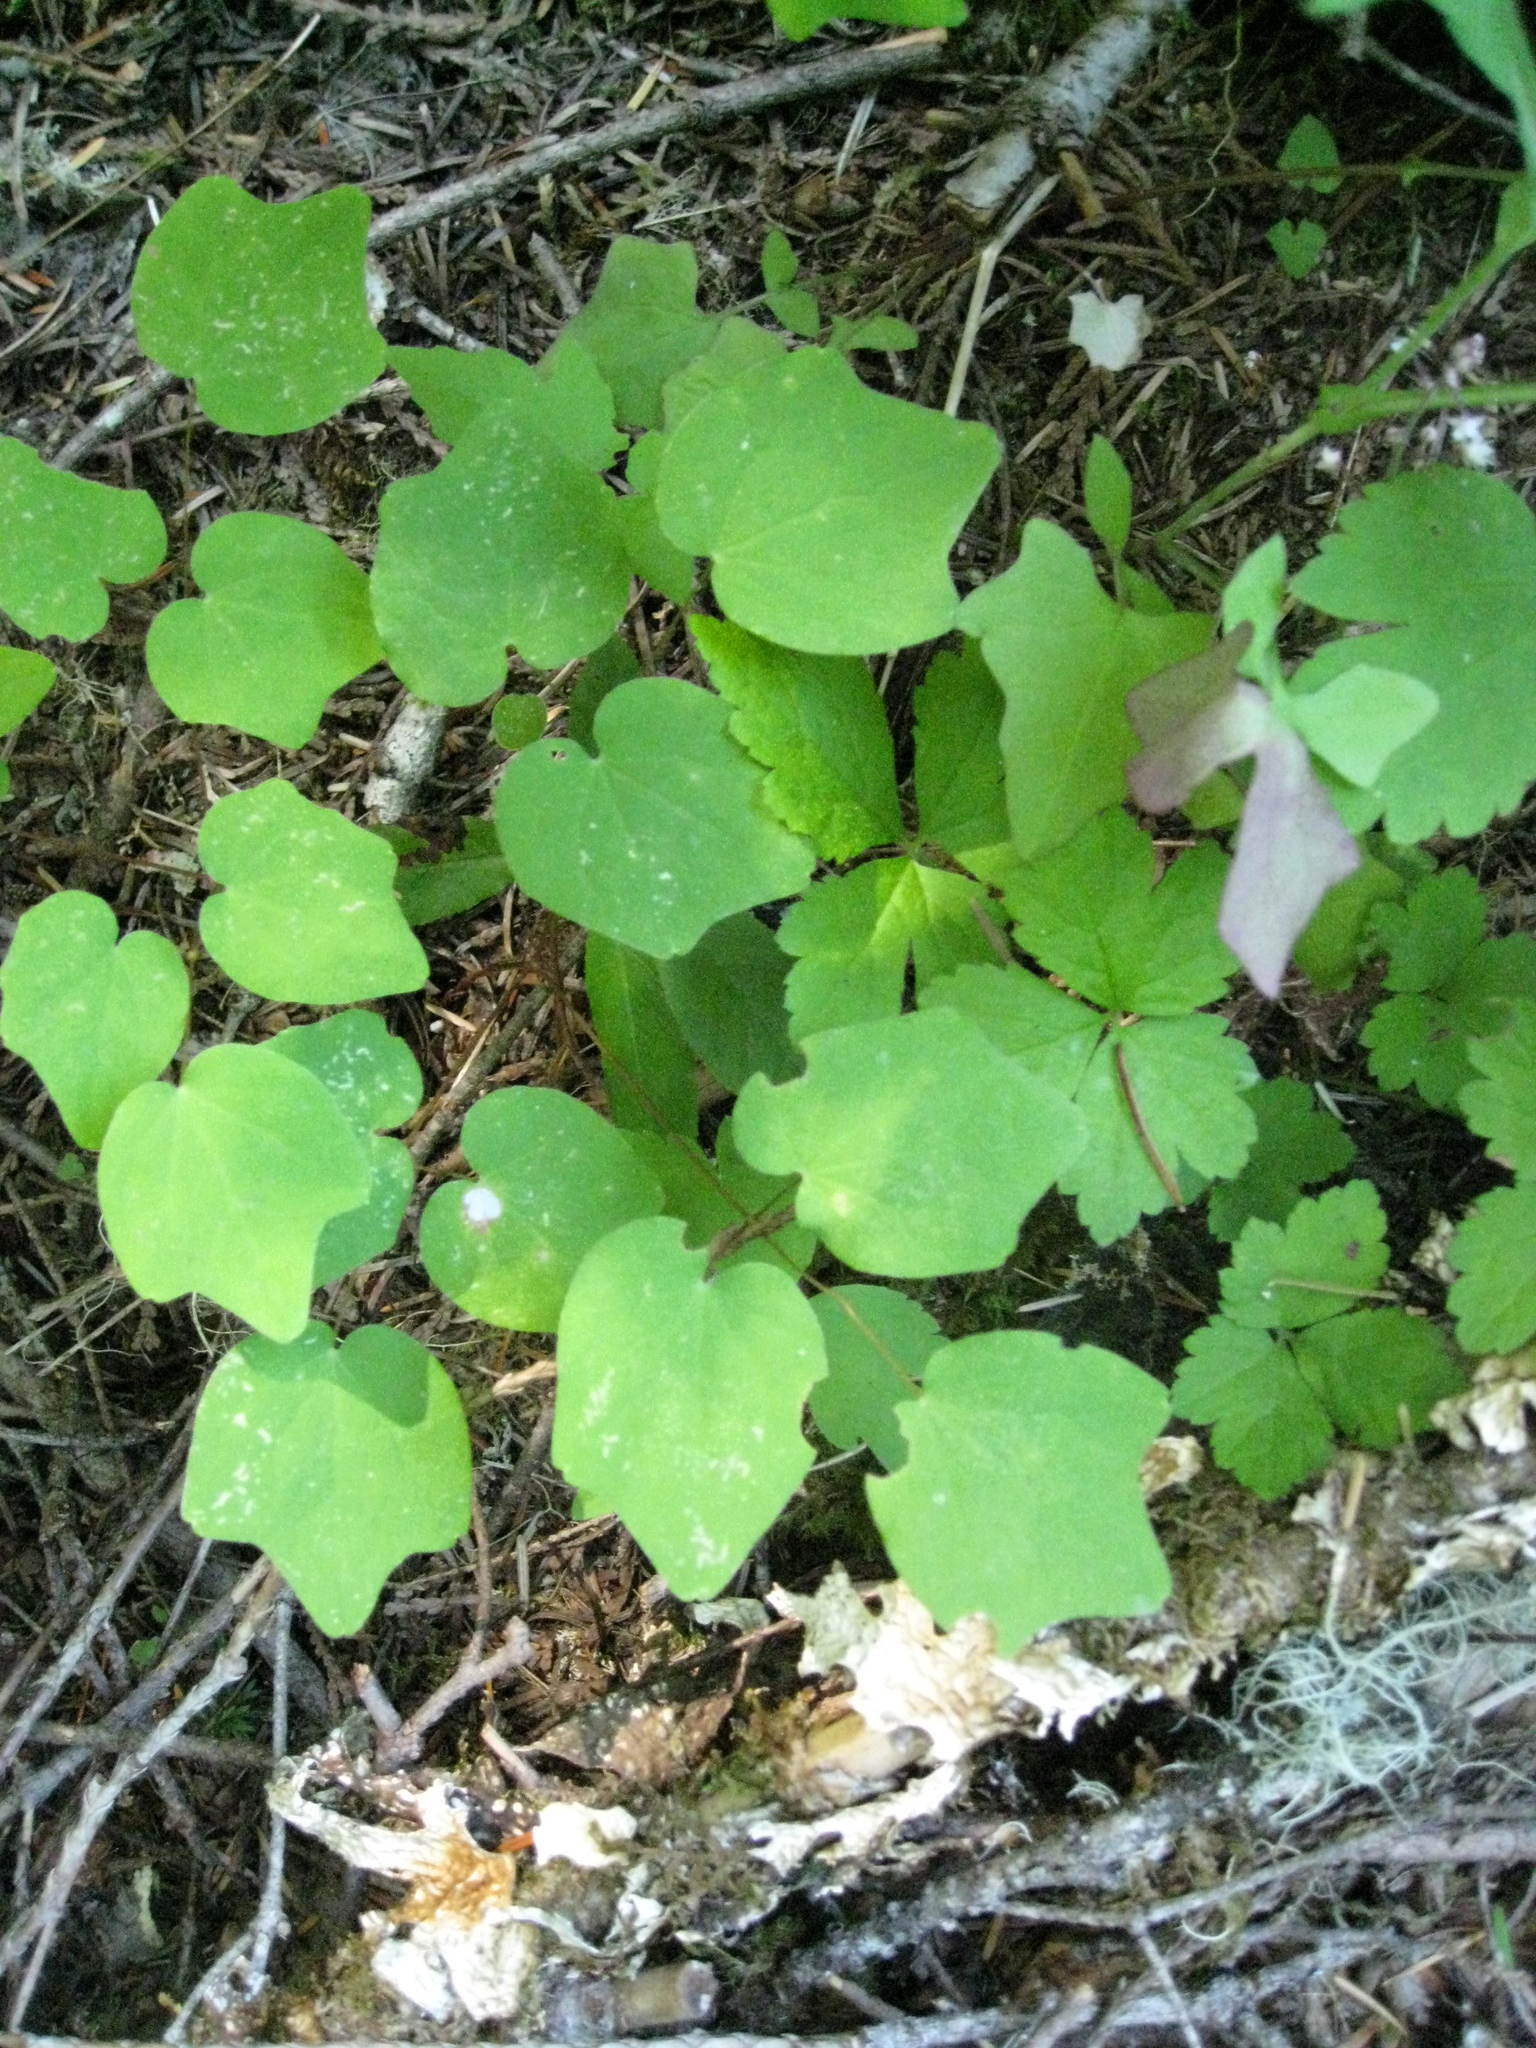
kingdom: Plantae
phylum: Tracheophyta
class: Magnoliopsida
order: Ranunculales
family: Berberidaceae
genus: Vancouveria
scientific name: Vancouveria hexandra
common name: Northern inside-out-flower
